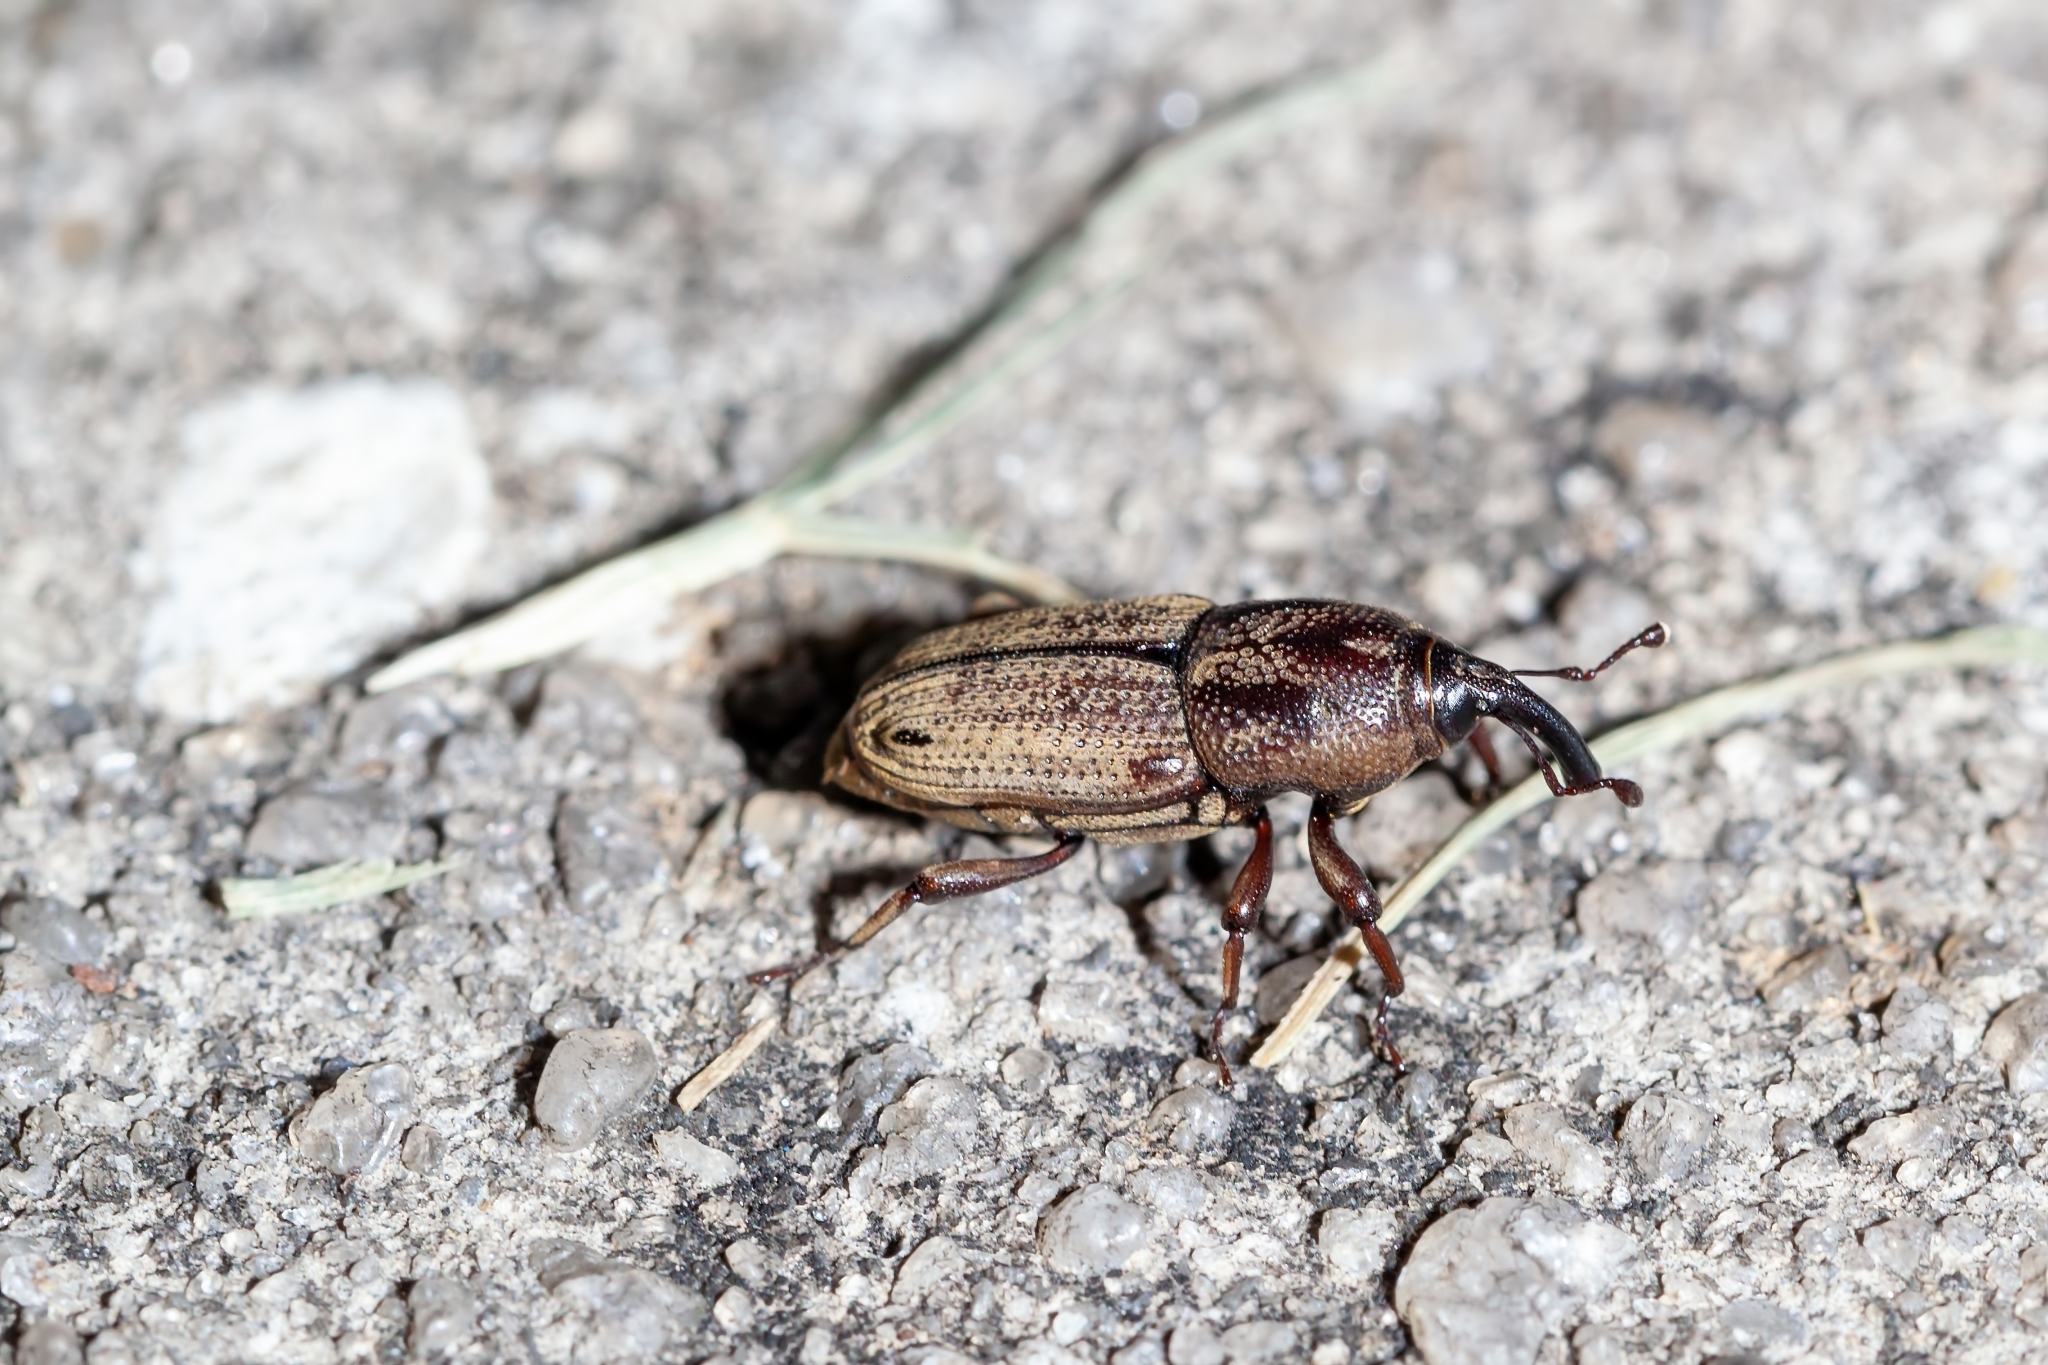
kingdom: Animalia
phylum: Arthropoda
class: Insecta
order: Coleoptera
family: Dryophthoridae
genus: Sphenophorus
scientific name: Sphenophorus venatus
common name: Hunting billbug
